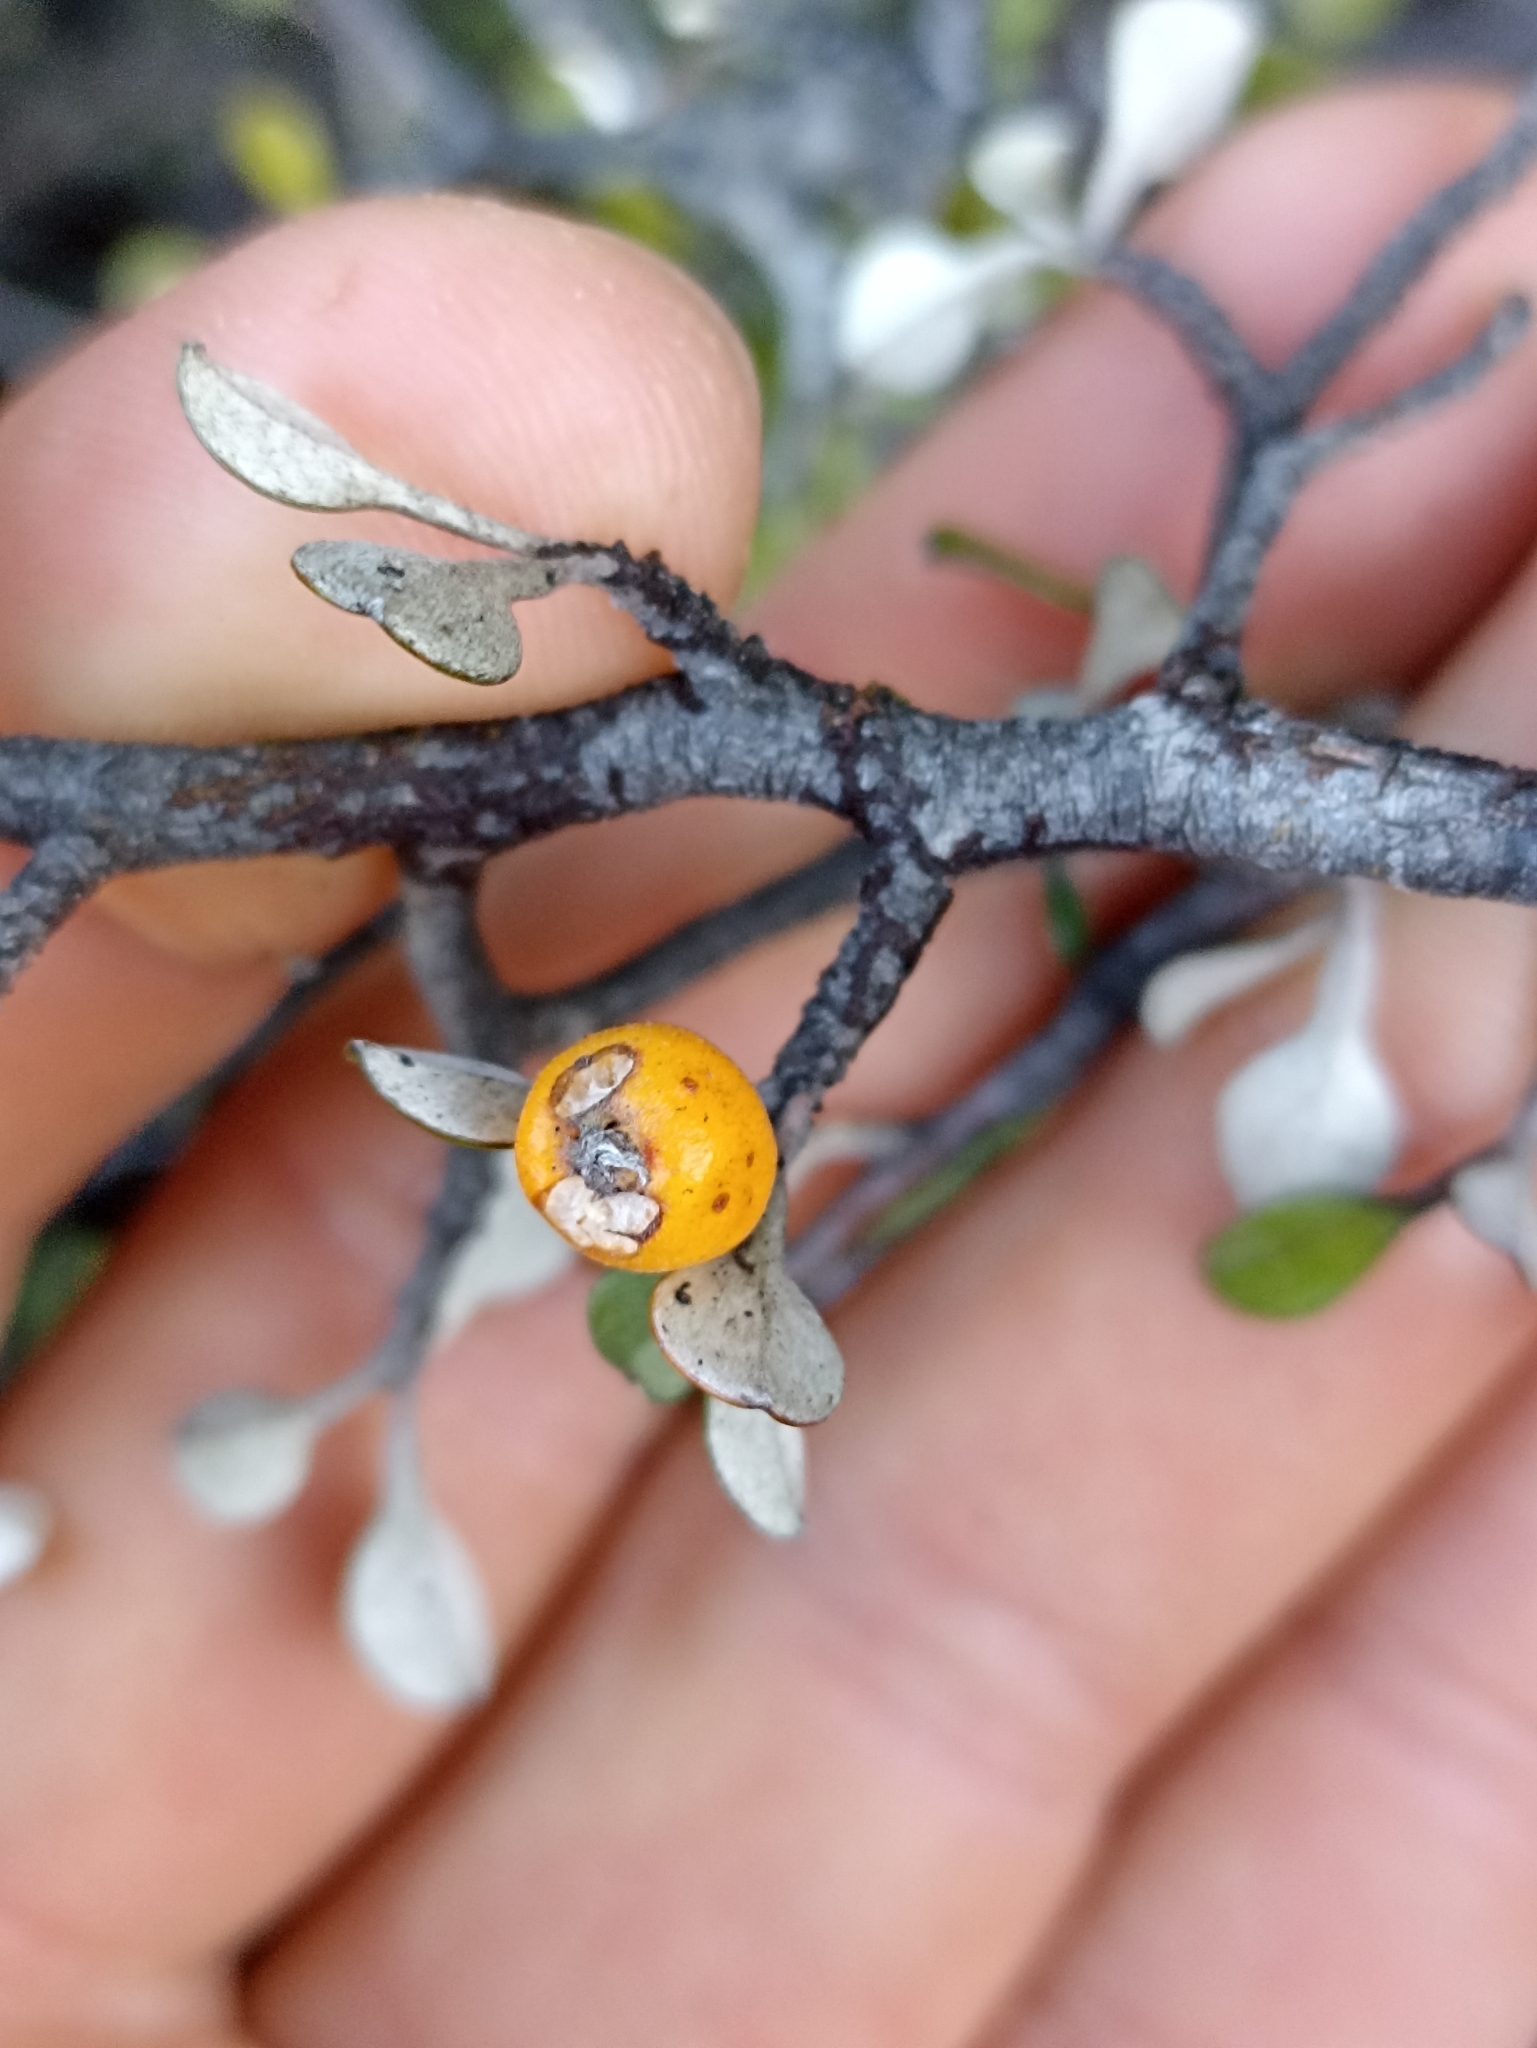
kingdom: Plantae
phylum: Tracheophyta
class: Magnoliopsida
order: Asterales
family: Argophyllaceae
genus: Corokia
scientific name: Corokia cotoneaster
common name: Wire nettingbush
